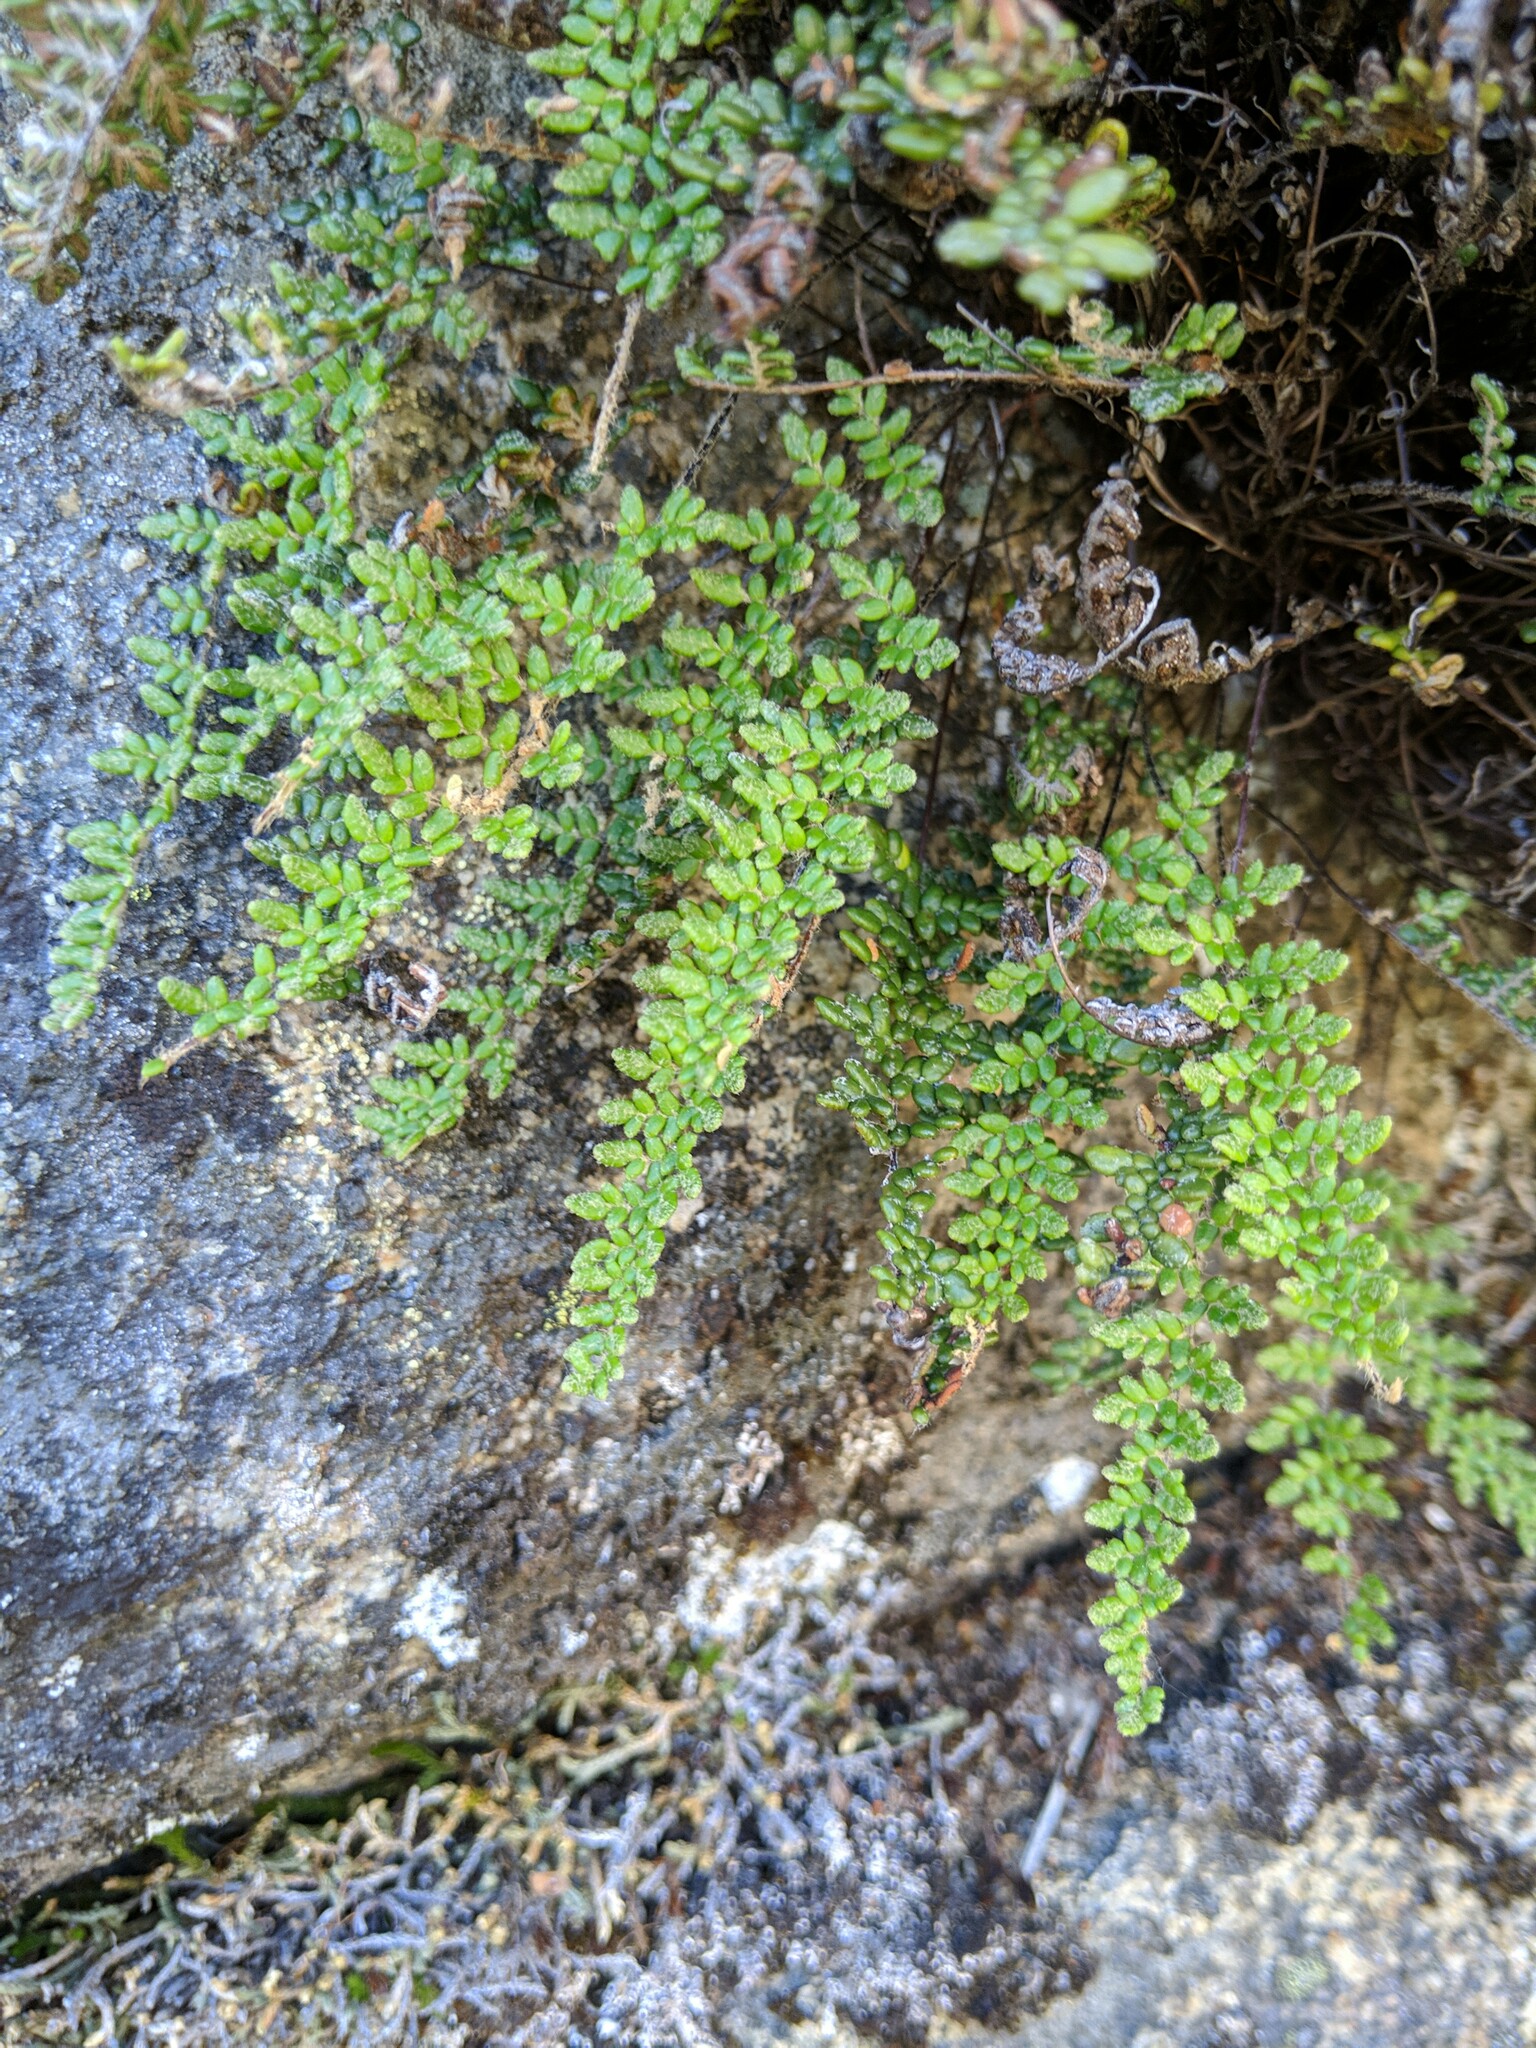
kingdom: Plantae
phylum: Tracheophyta
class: Polypodiopsida
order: Polypodiales
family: Pteridaceae
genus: Myriopteris
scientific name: Myriopteris gracillima
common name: Lace fern
